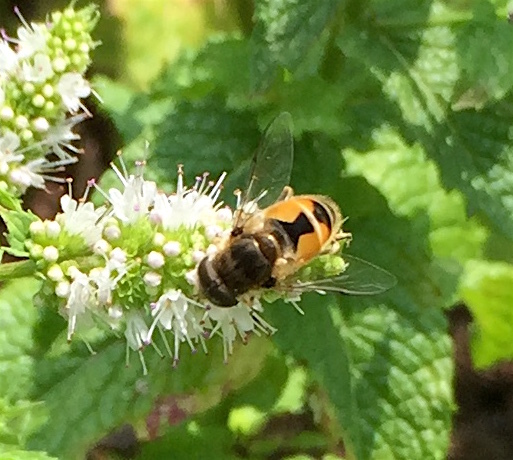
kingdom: Animalia
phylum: Arthropoda
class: Insecta
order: Diptera
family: Syrphidae
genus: Eristalis
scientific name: Eristalis arbustorum
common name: Hover fly
